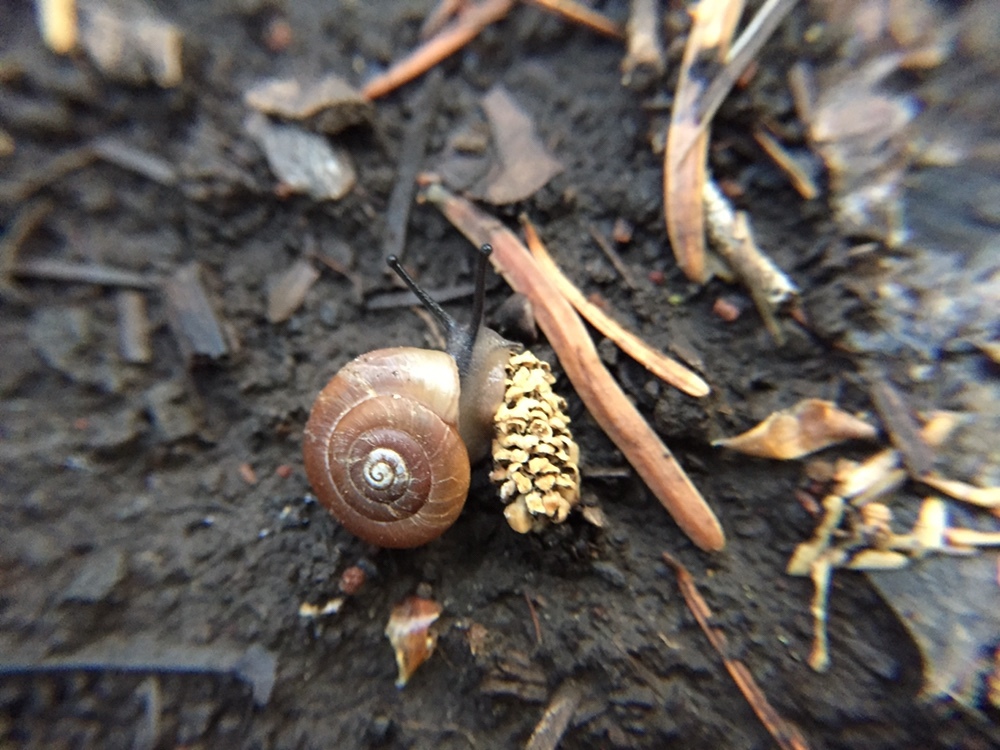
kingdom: Animalia
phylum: Mollusca
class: Gastropoda
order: Stylommatophora
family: Polygyridae
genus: Ashmunella
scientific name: Ashmunella rhyssa
